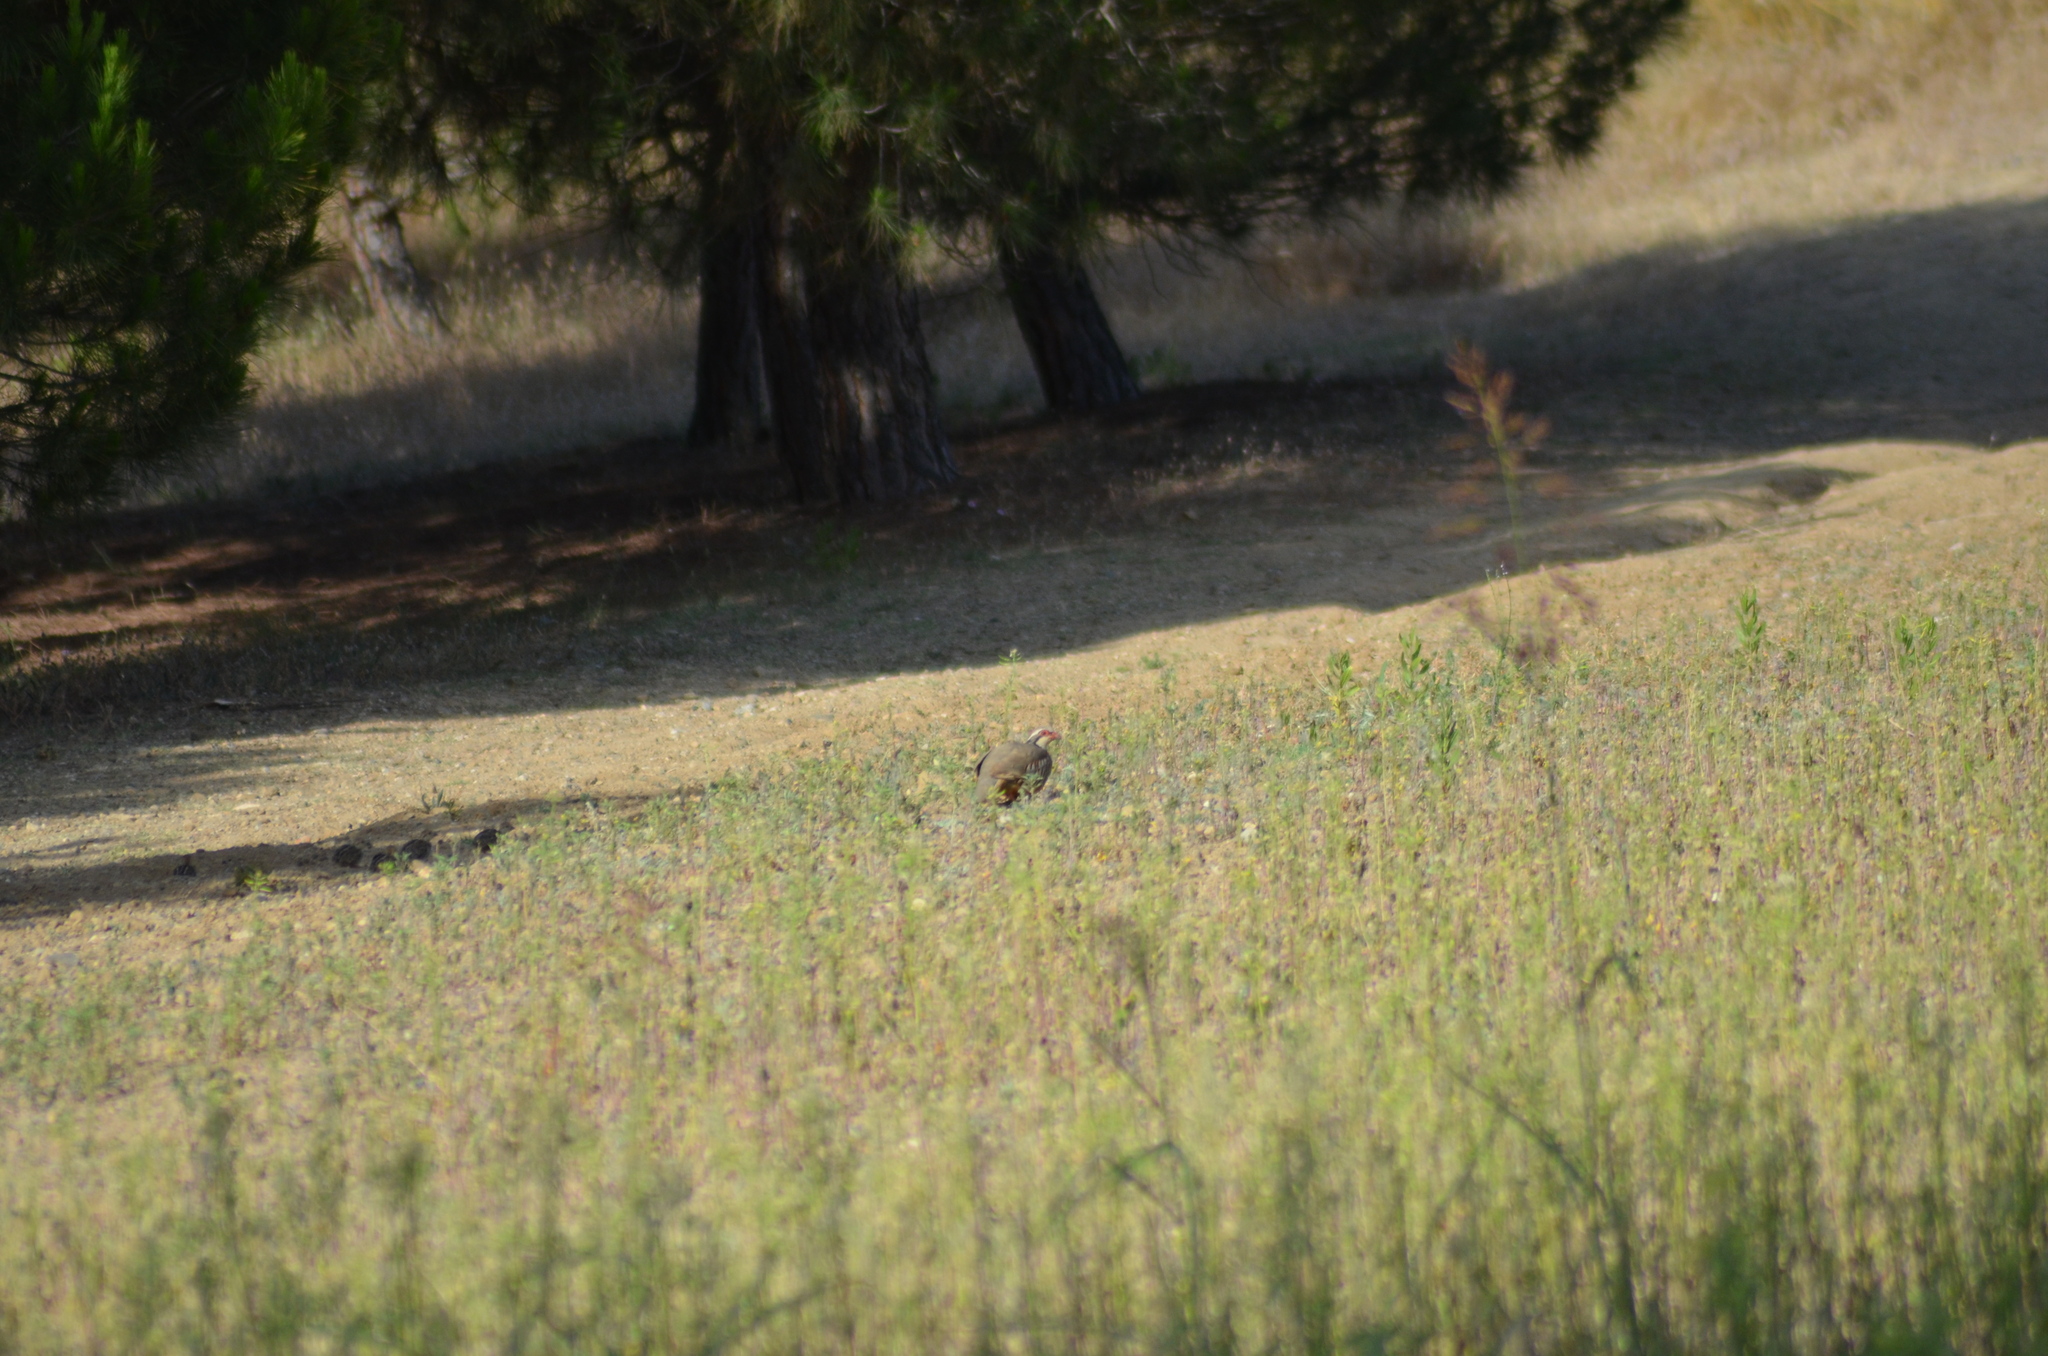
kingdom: Animalia
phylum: Chordata
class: Aves
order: Galliformes
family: Phasianidae
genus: Alectoris
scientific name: Alectoris rufa
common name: Red-legged partridge
